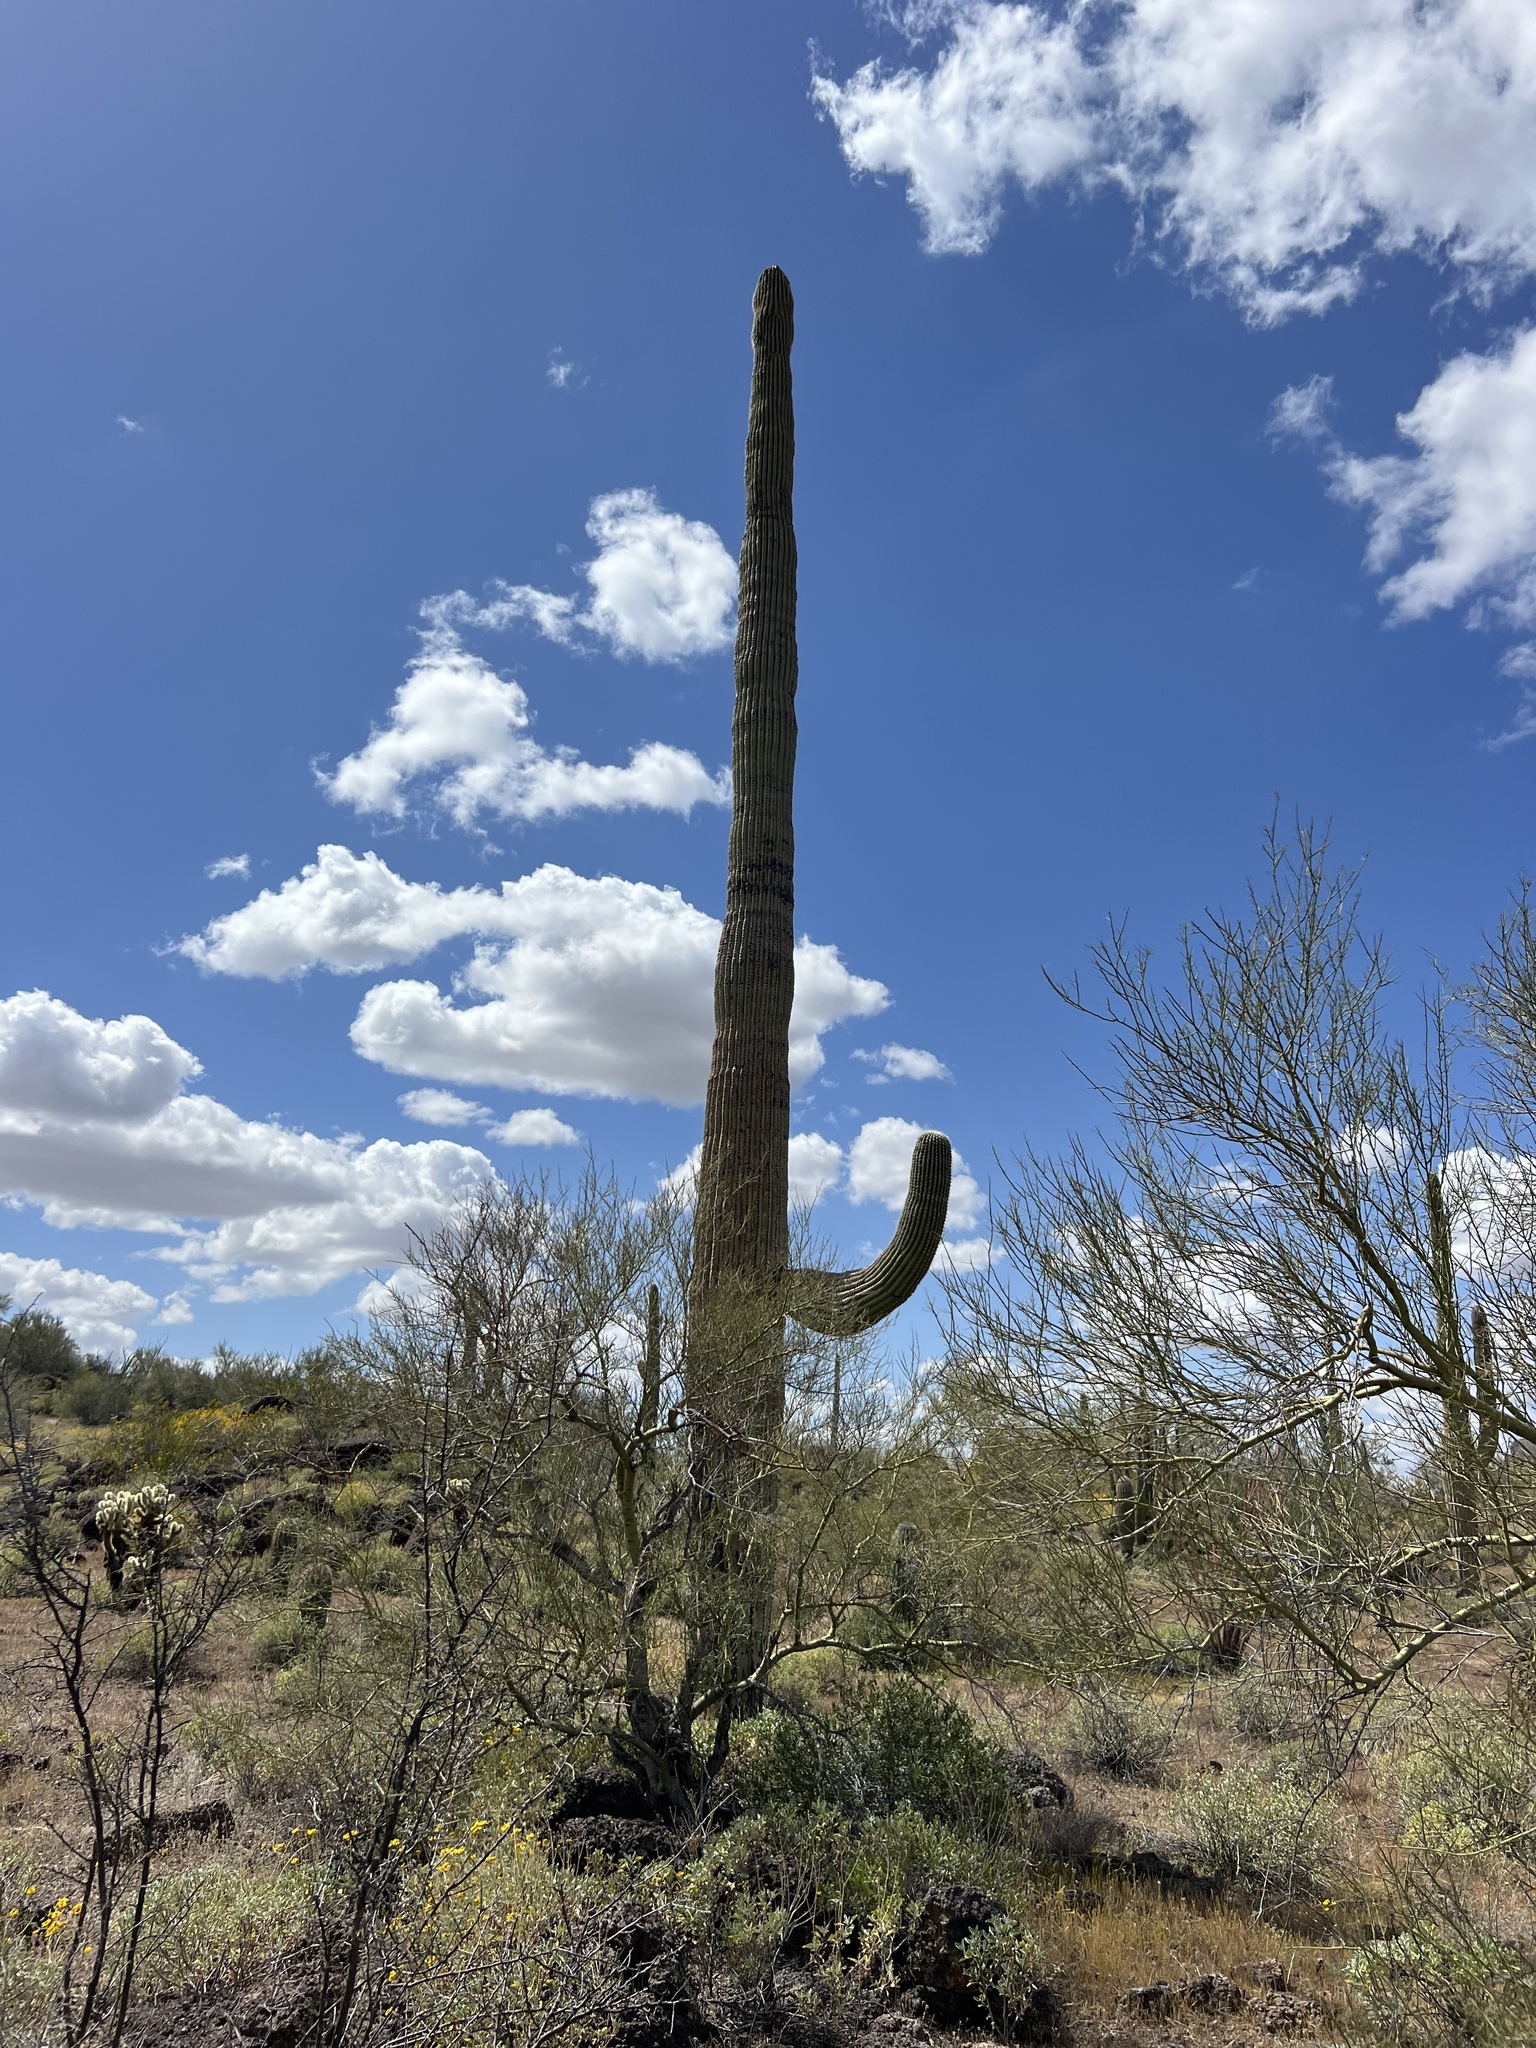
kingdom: Plantae
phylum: Tracheophyta
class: Magnoliopsida
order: Caryophyllales
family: Cactaceae
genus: Carnegiea
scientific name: Carnegiea gigantea
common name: Saguaro
